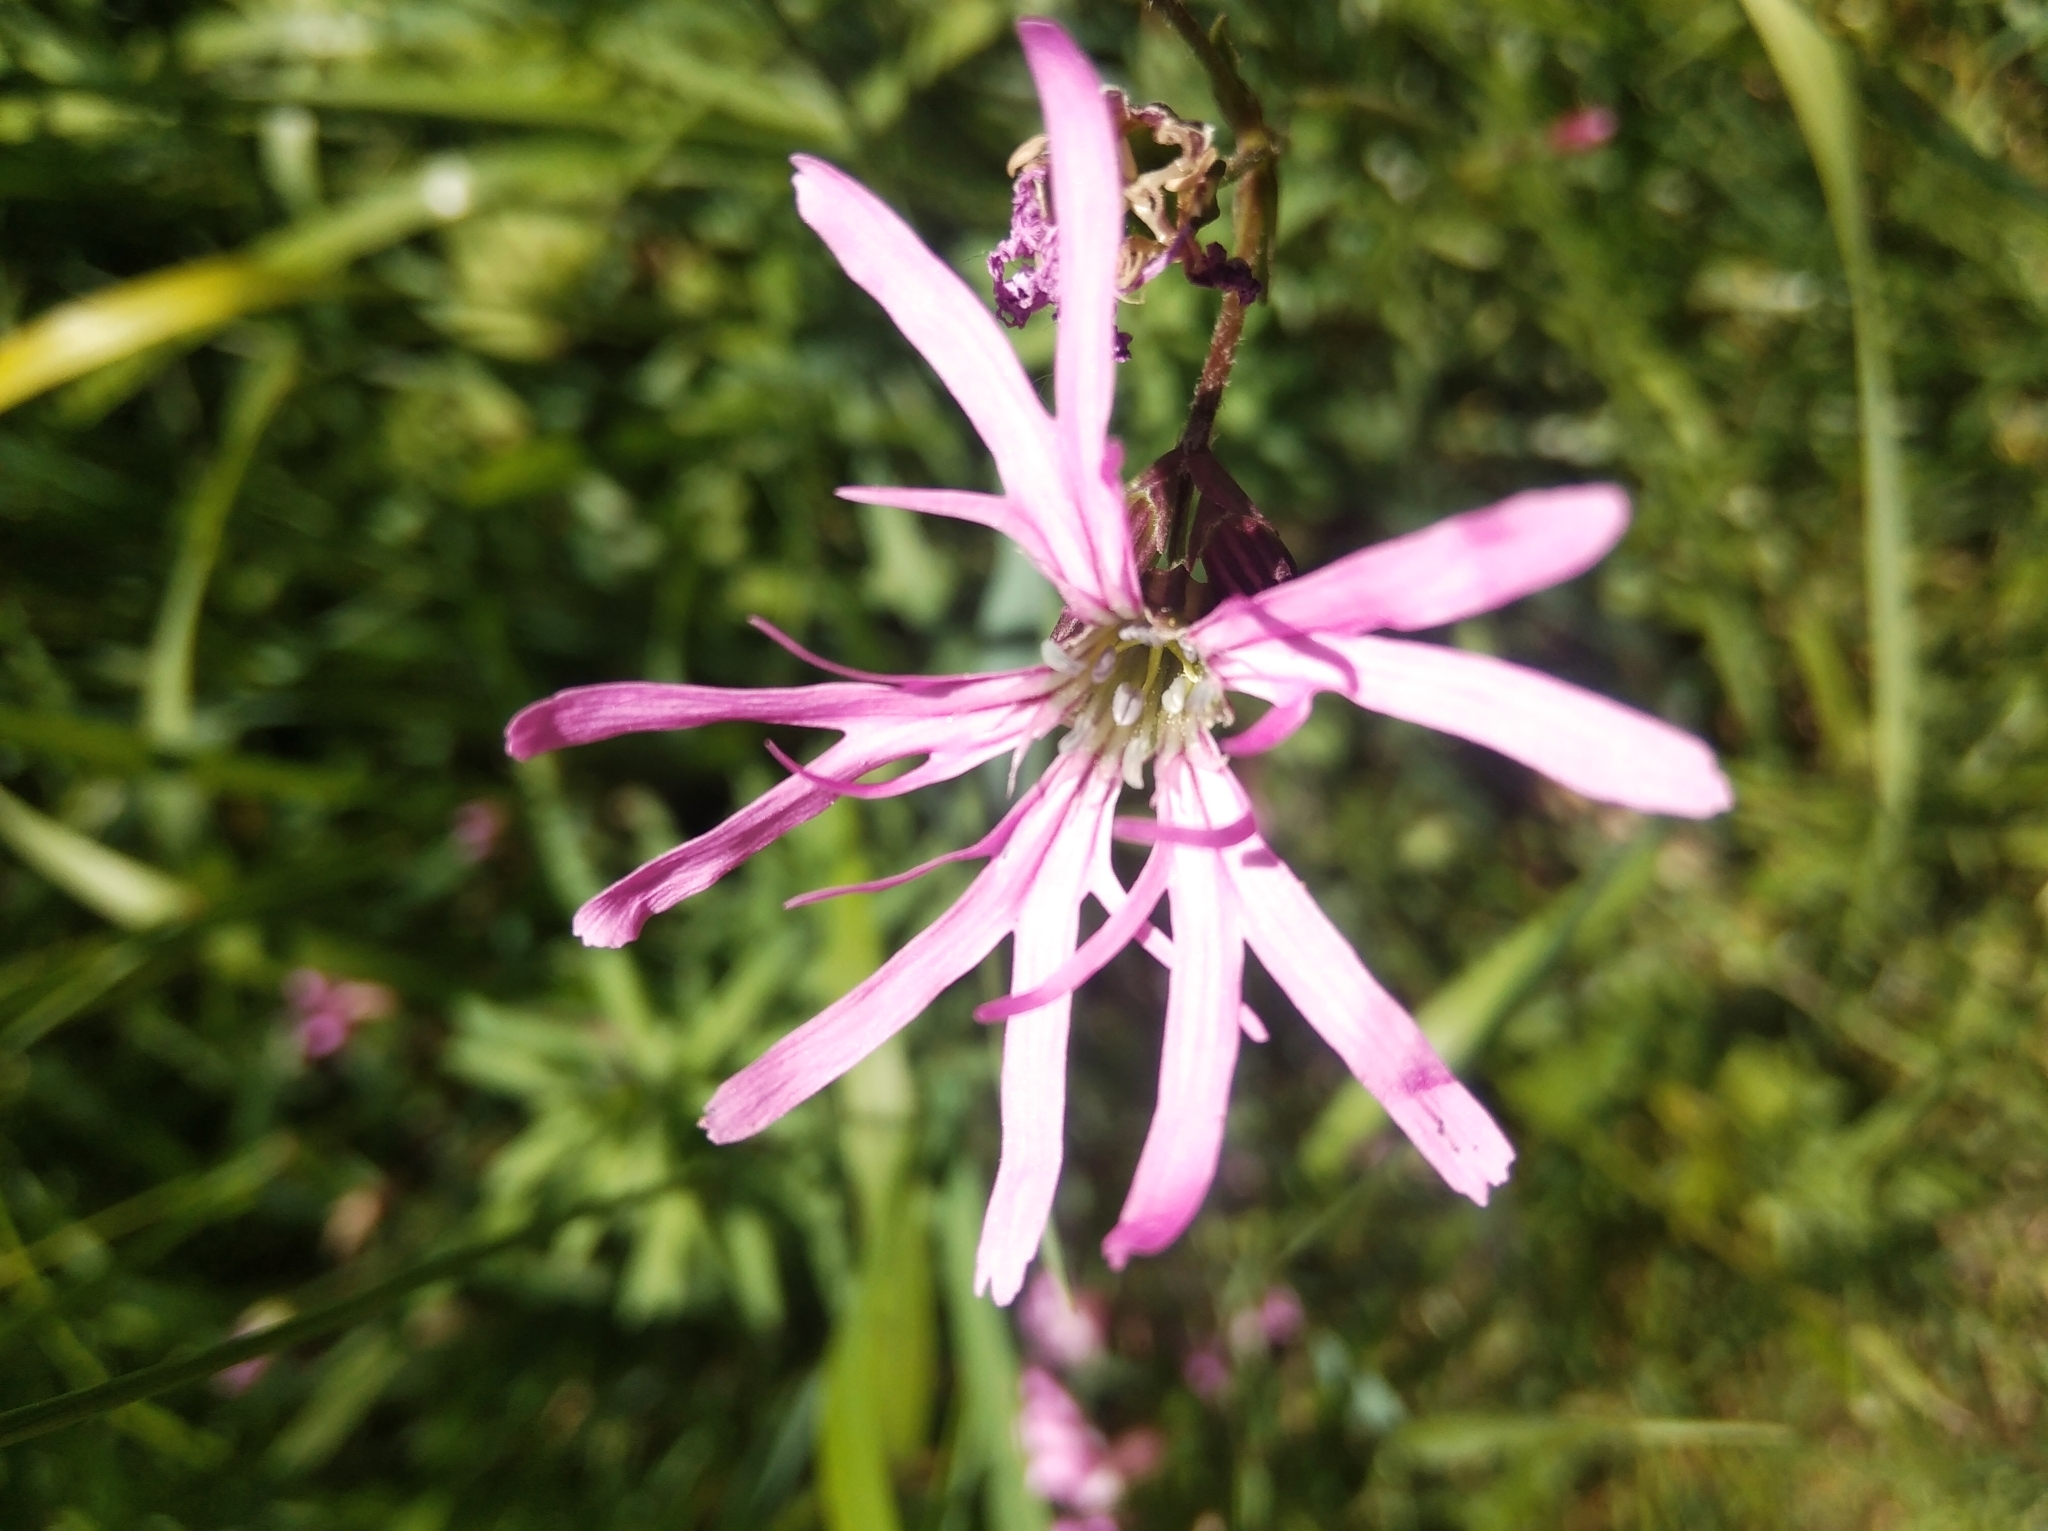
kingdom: Plantae
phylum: Tracheophyta
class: Magnoliopsida
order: Caryophyllales
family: Caryophyllaceae
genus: Silene
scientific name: Silene flos-cuculi
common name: Ragged-robin
